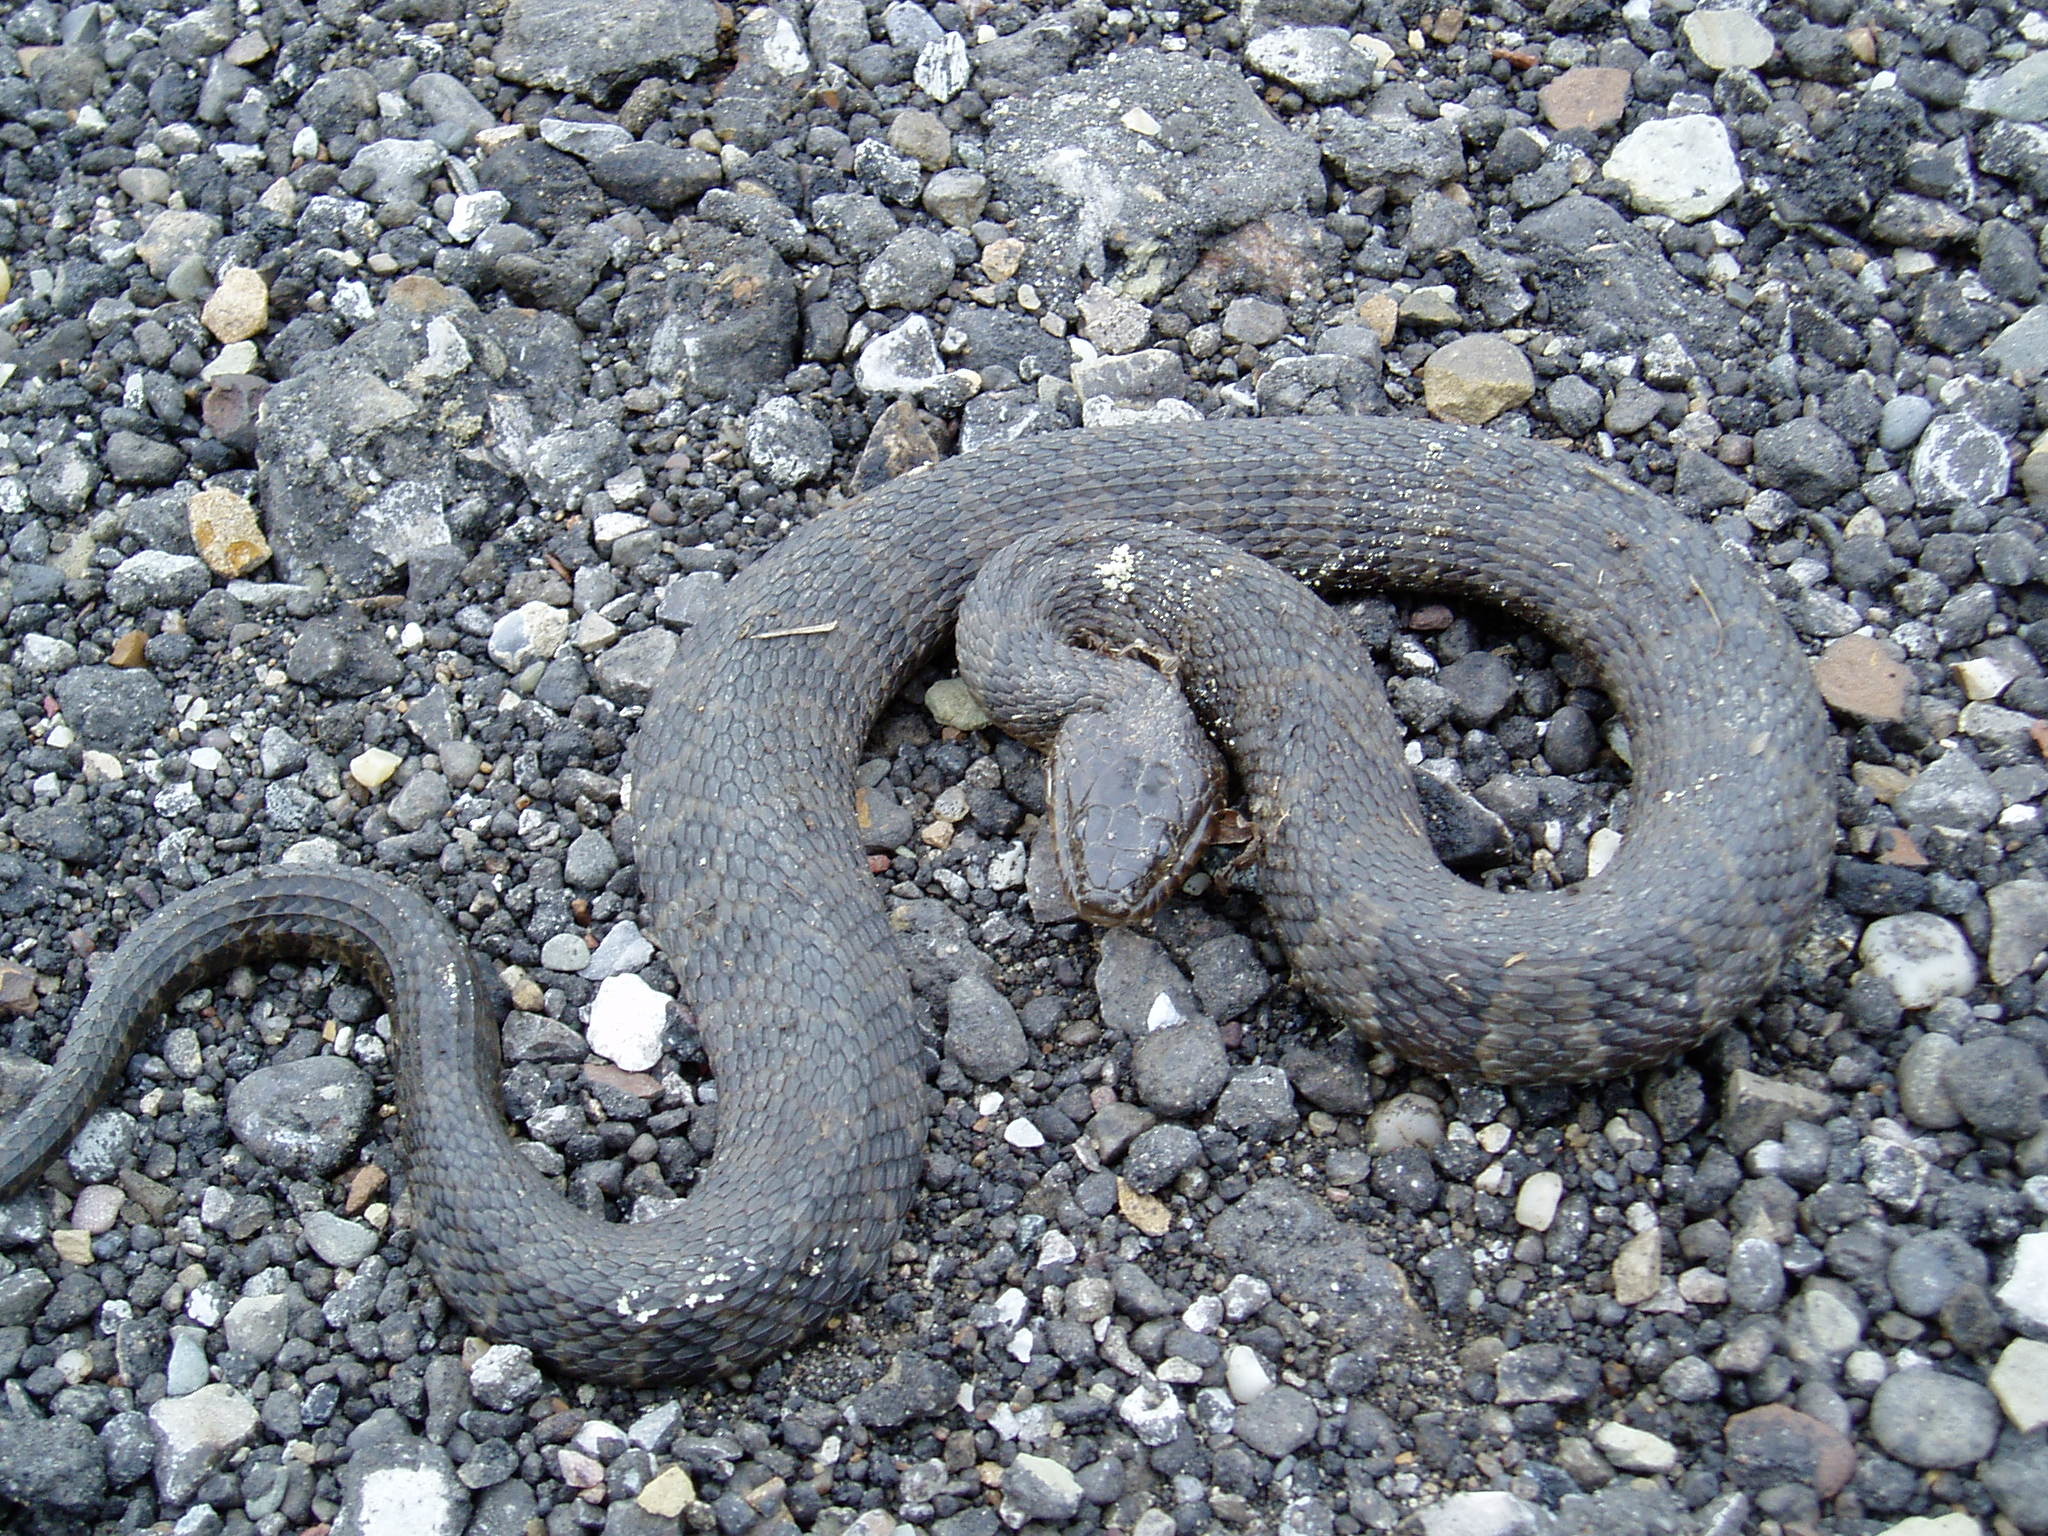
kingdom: Animalia
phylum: Chordata
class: Squamata
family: Colubridae
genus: Nerodia
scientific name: Nerodia sipedon
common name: Northern water snake
